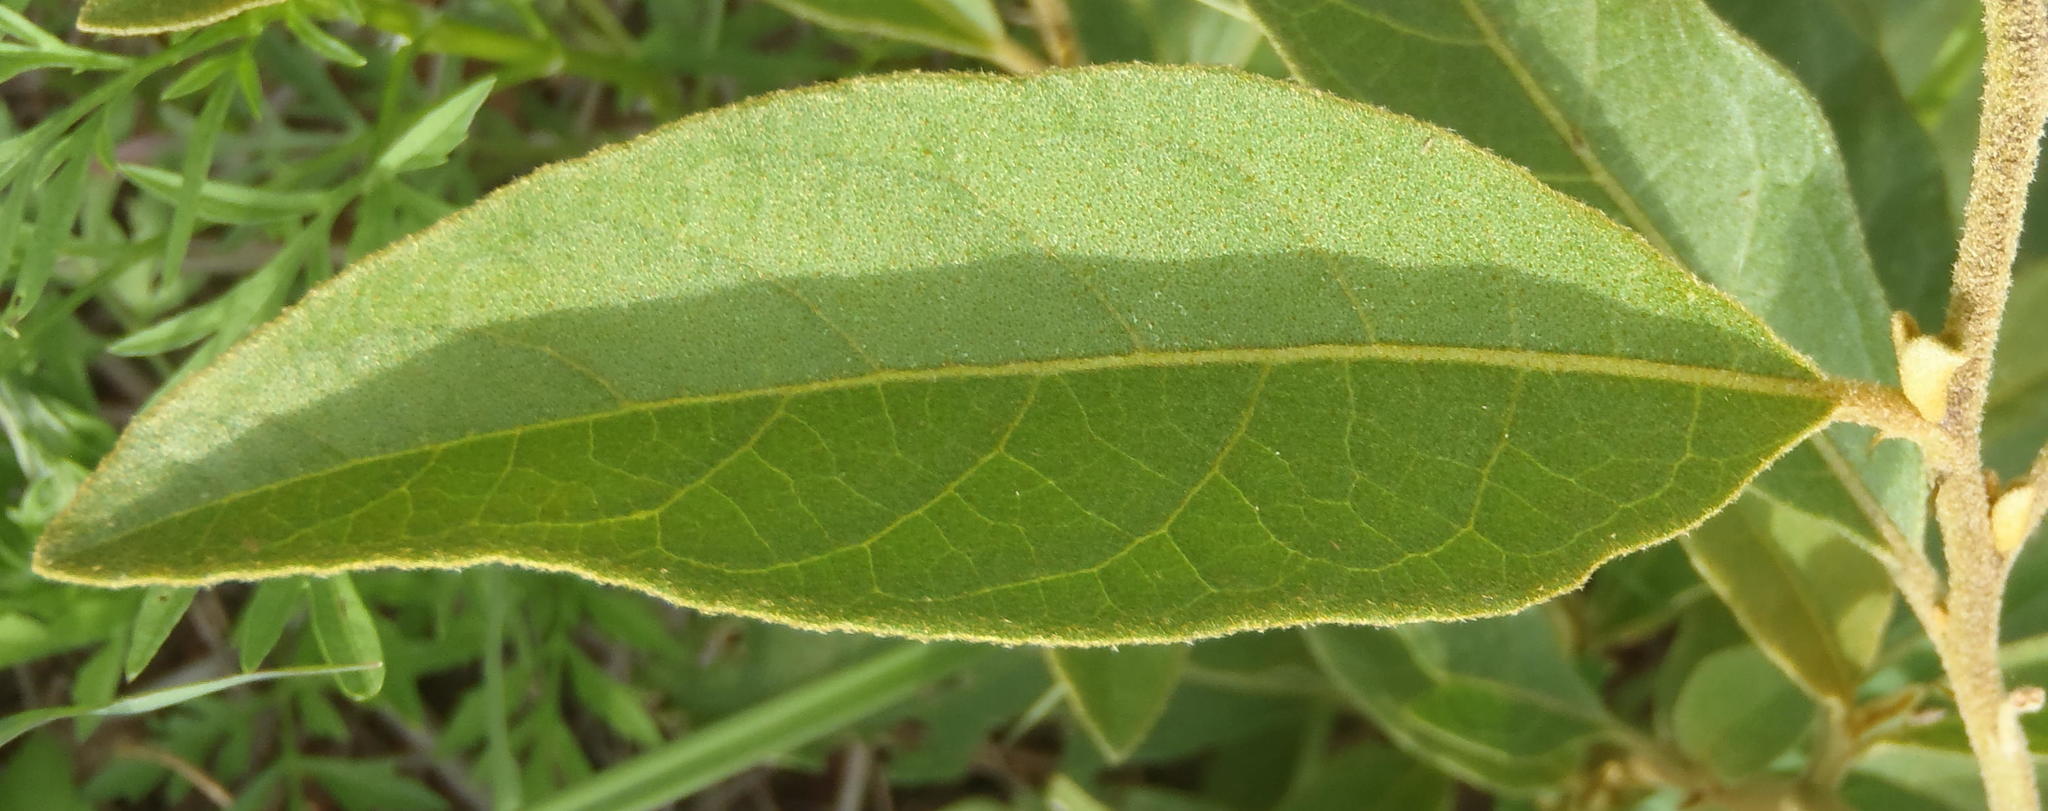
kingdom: Plantae
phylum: Tracheophyta
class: Magnoliopsida
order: Solanales
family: Solanaceae
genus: Solanum
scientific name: Solanum campylacanthum
